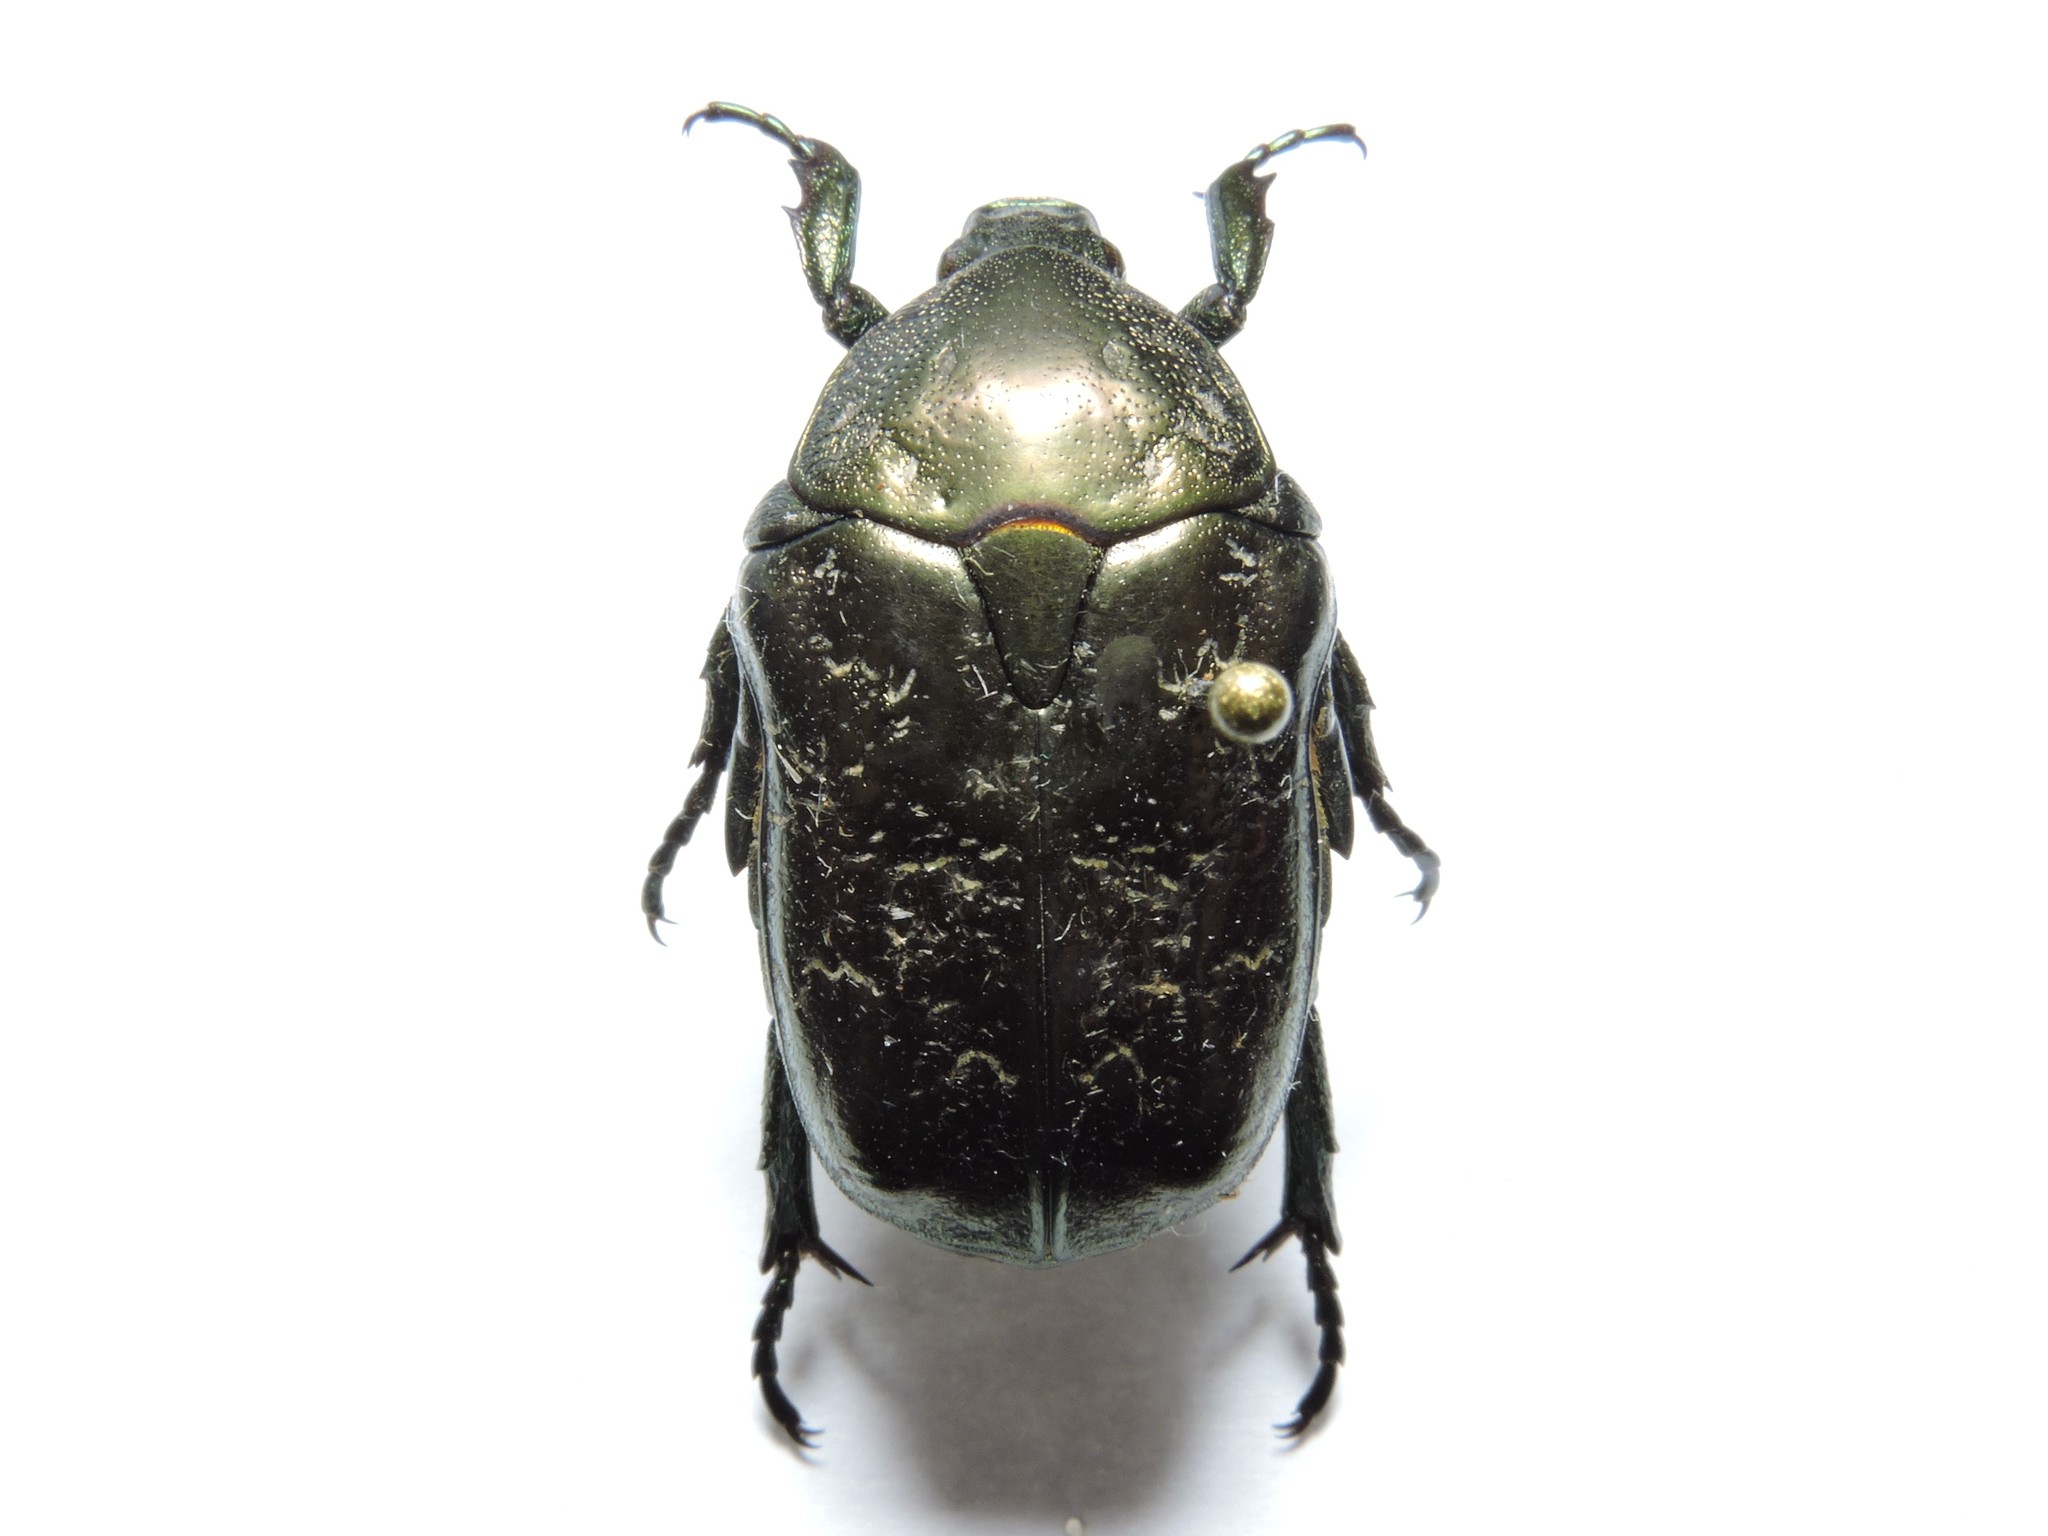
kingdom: Animalia
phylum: Arthropoda
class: Insecta
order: Coleoptera
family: Scarabaeidae
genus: Protaetia
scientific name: Protaetia marmorata
